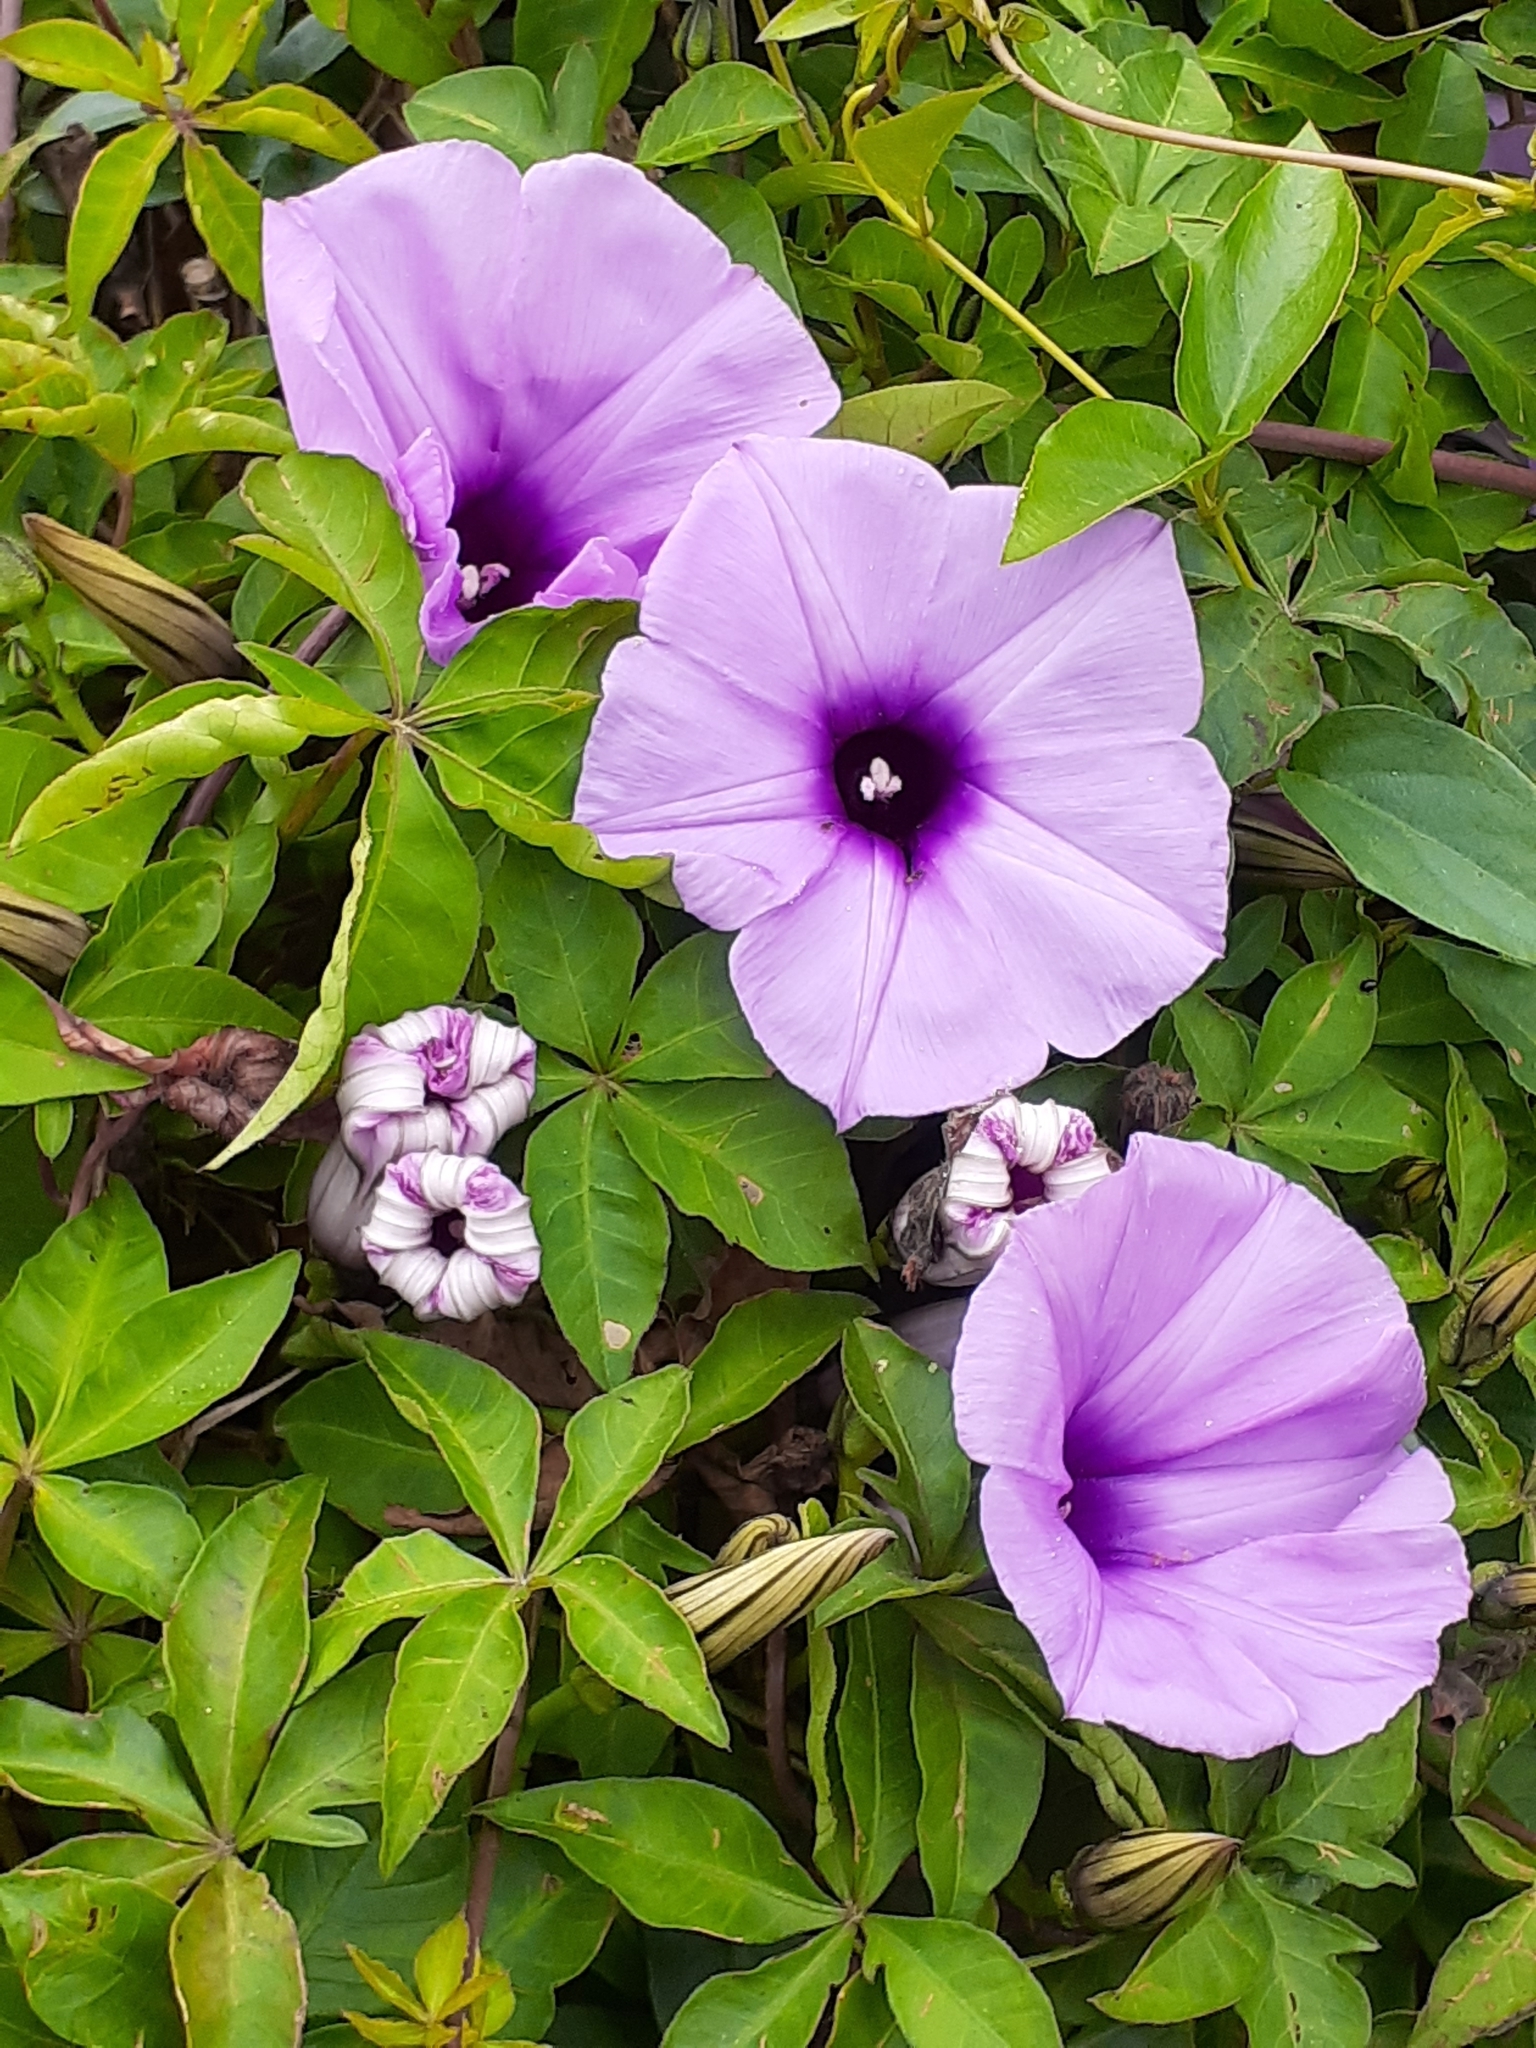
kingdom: Plantae
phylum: Tracheophyta
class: Magnoliopsida
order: Solanales
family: Convolvulaceae
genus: Ipomoea
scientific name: Ipomoea cairica
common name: Mile a minute vine
